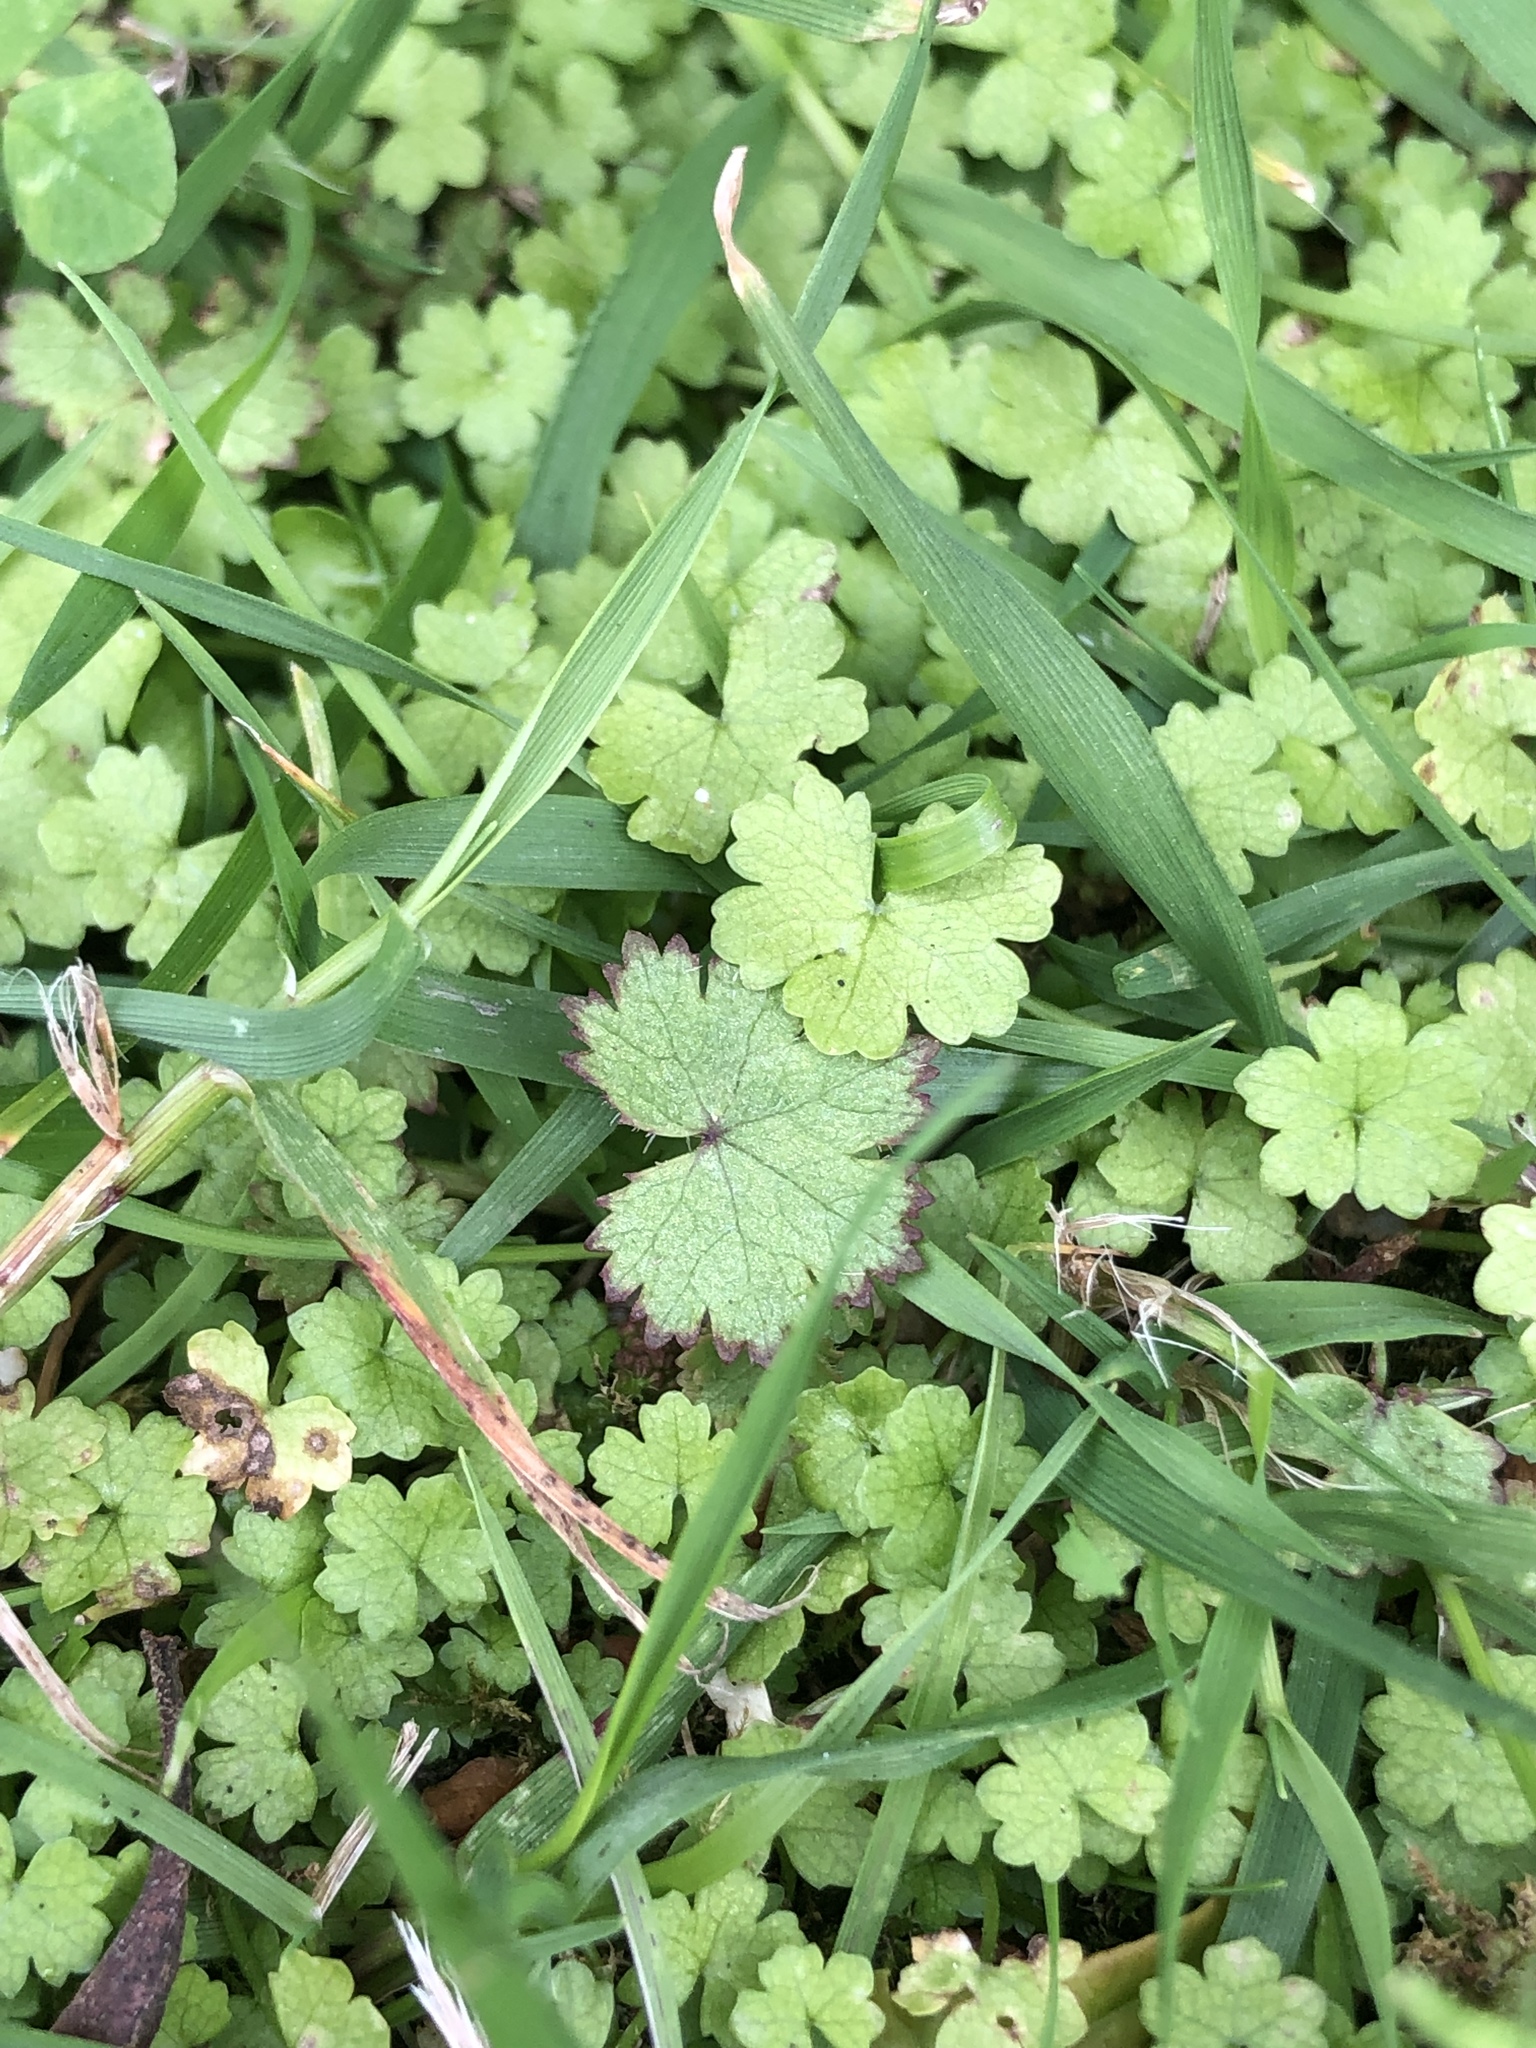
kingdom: Plantae
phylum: Tracheophyta
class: Magnoliopsida
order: Apiales
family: Araliaceae
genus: Hydrocotyle
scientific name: Hydrocotyle moschata
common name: Hairy pennywort
